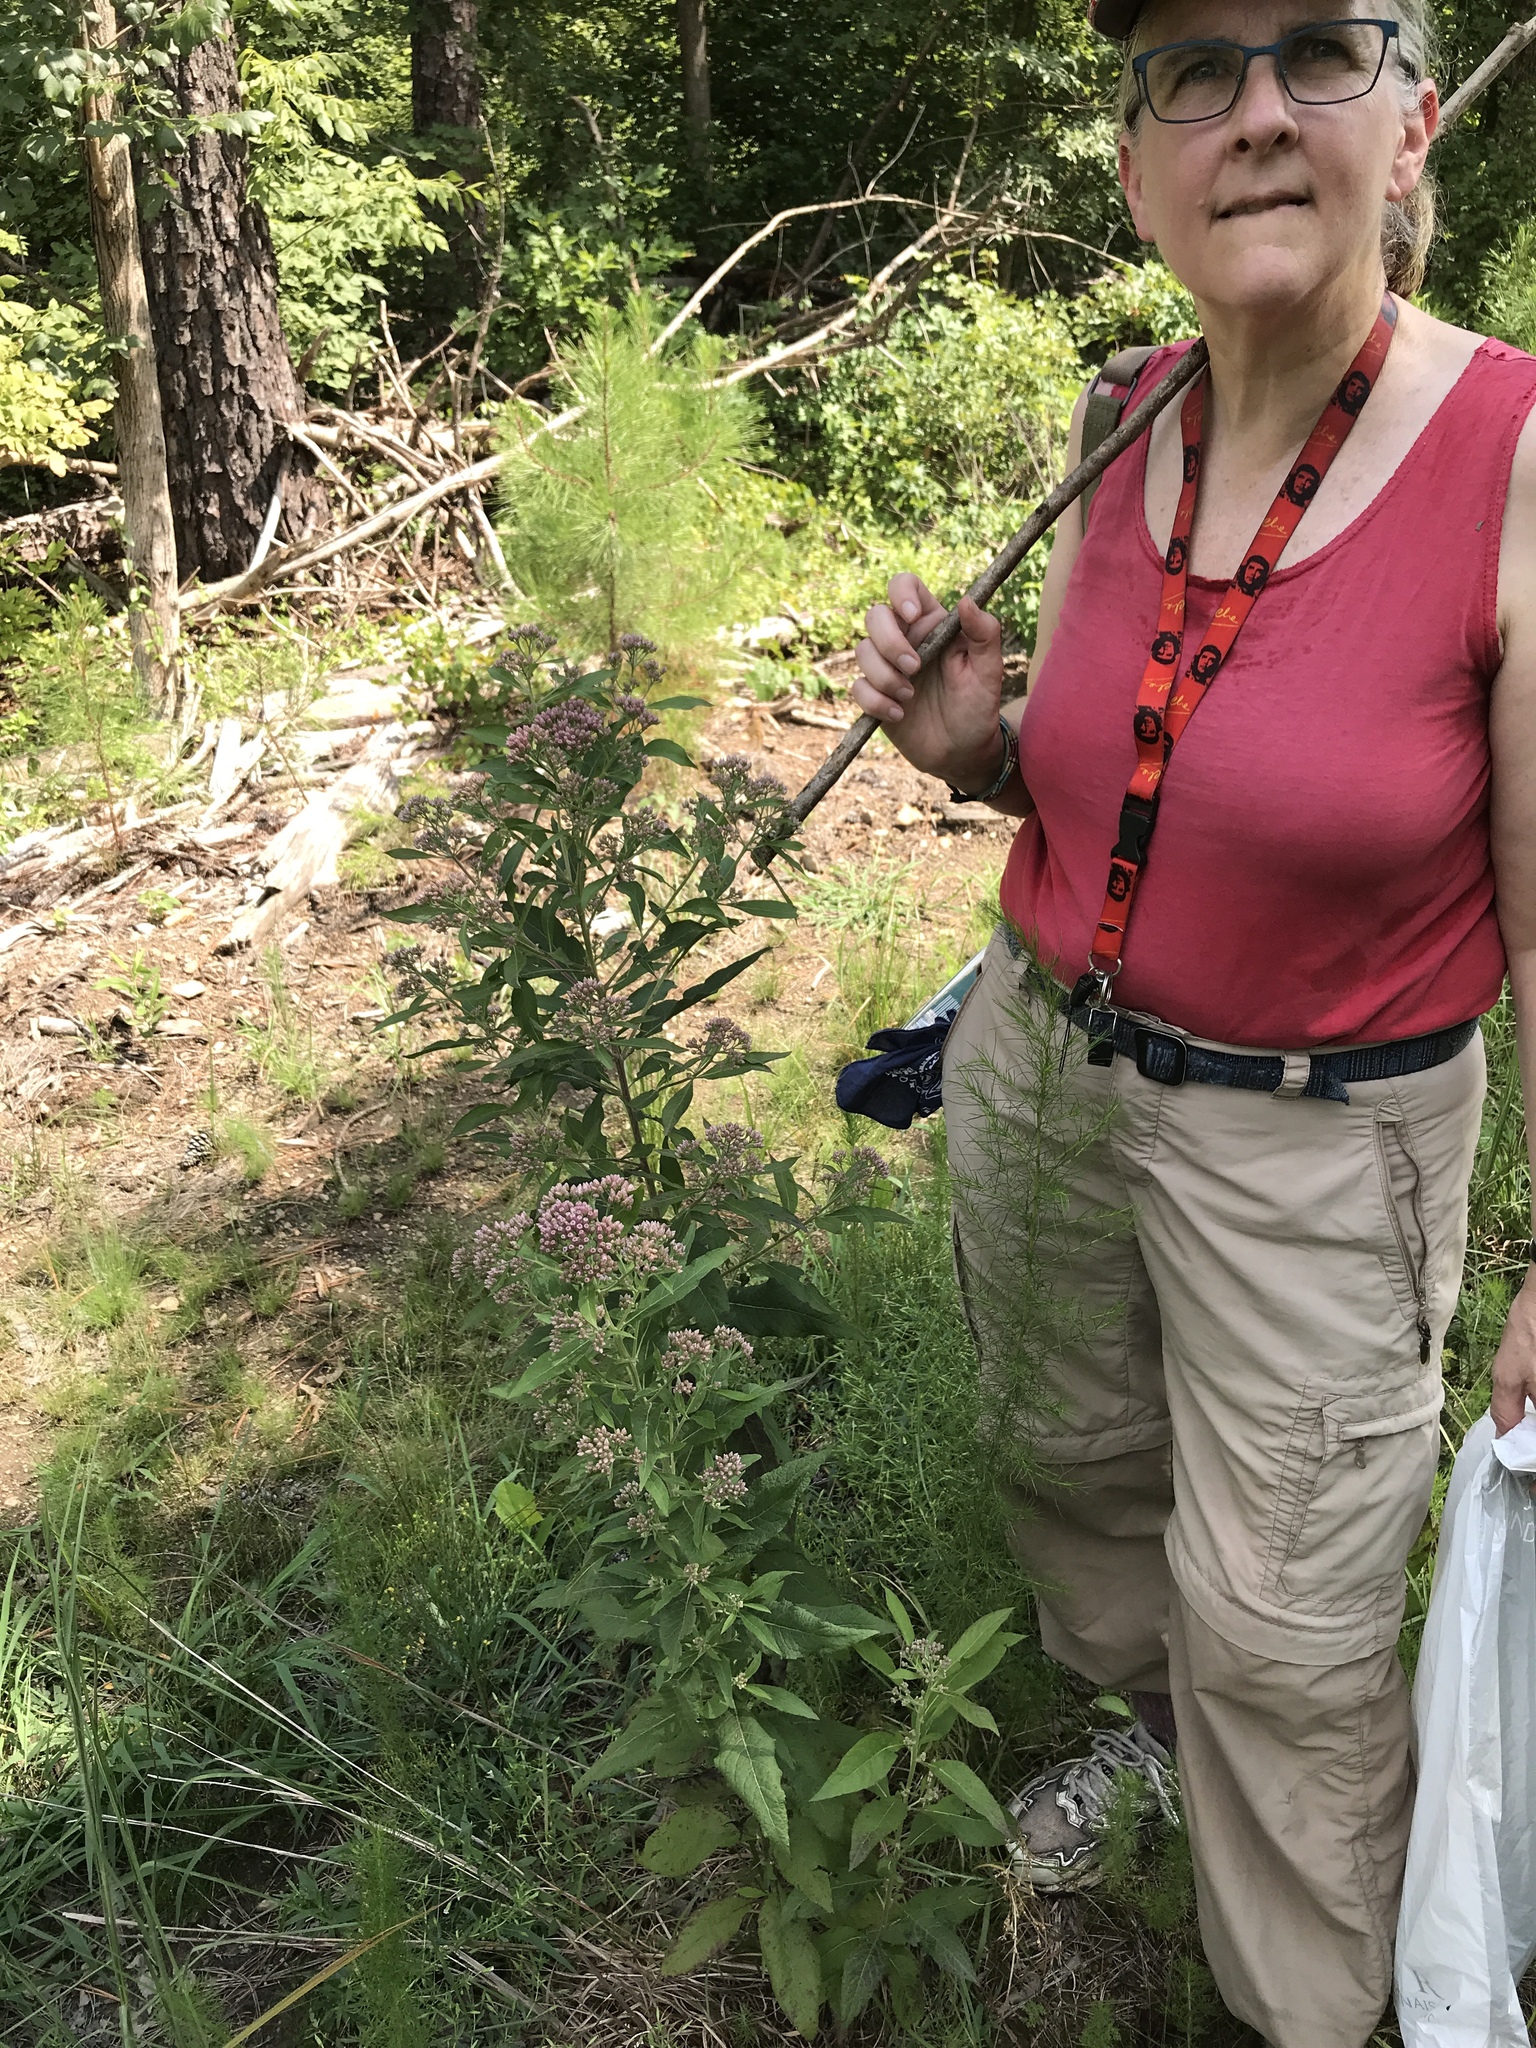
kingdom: Plantae
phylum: Tracheophyta
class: Magnoliopsida
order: Asterales
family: Asteraceae
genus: Pluchea
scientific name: Pluchea camphorata
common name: Camphor pluchea
